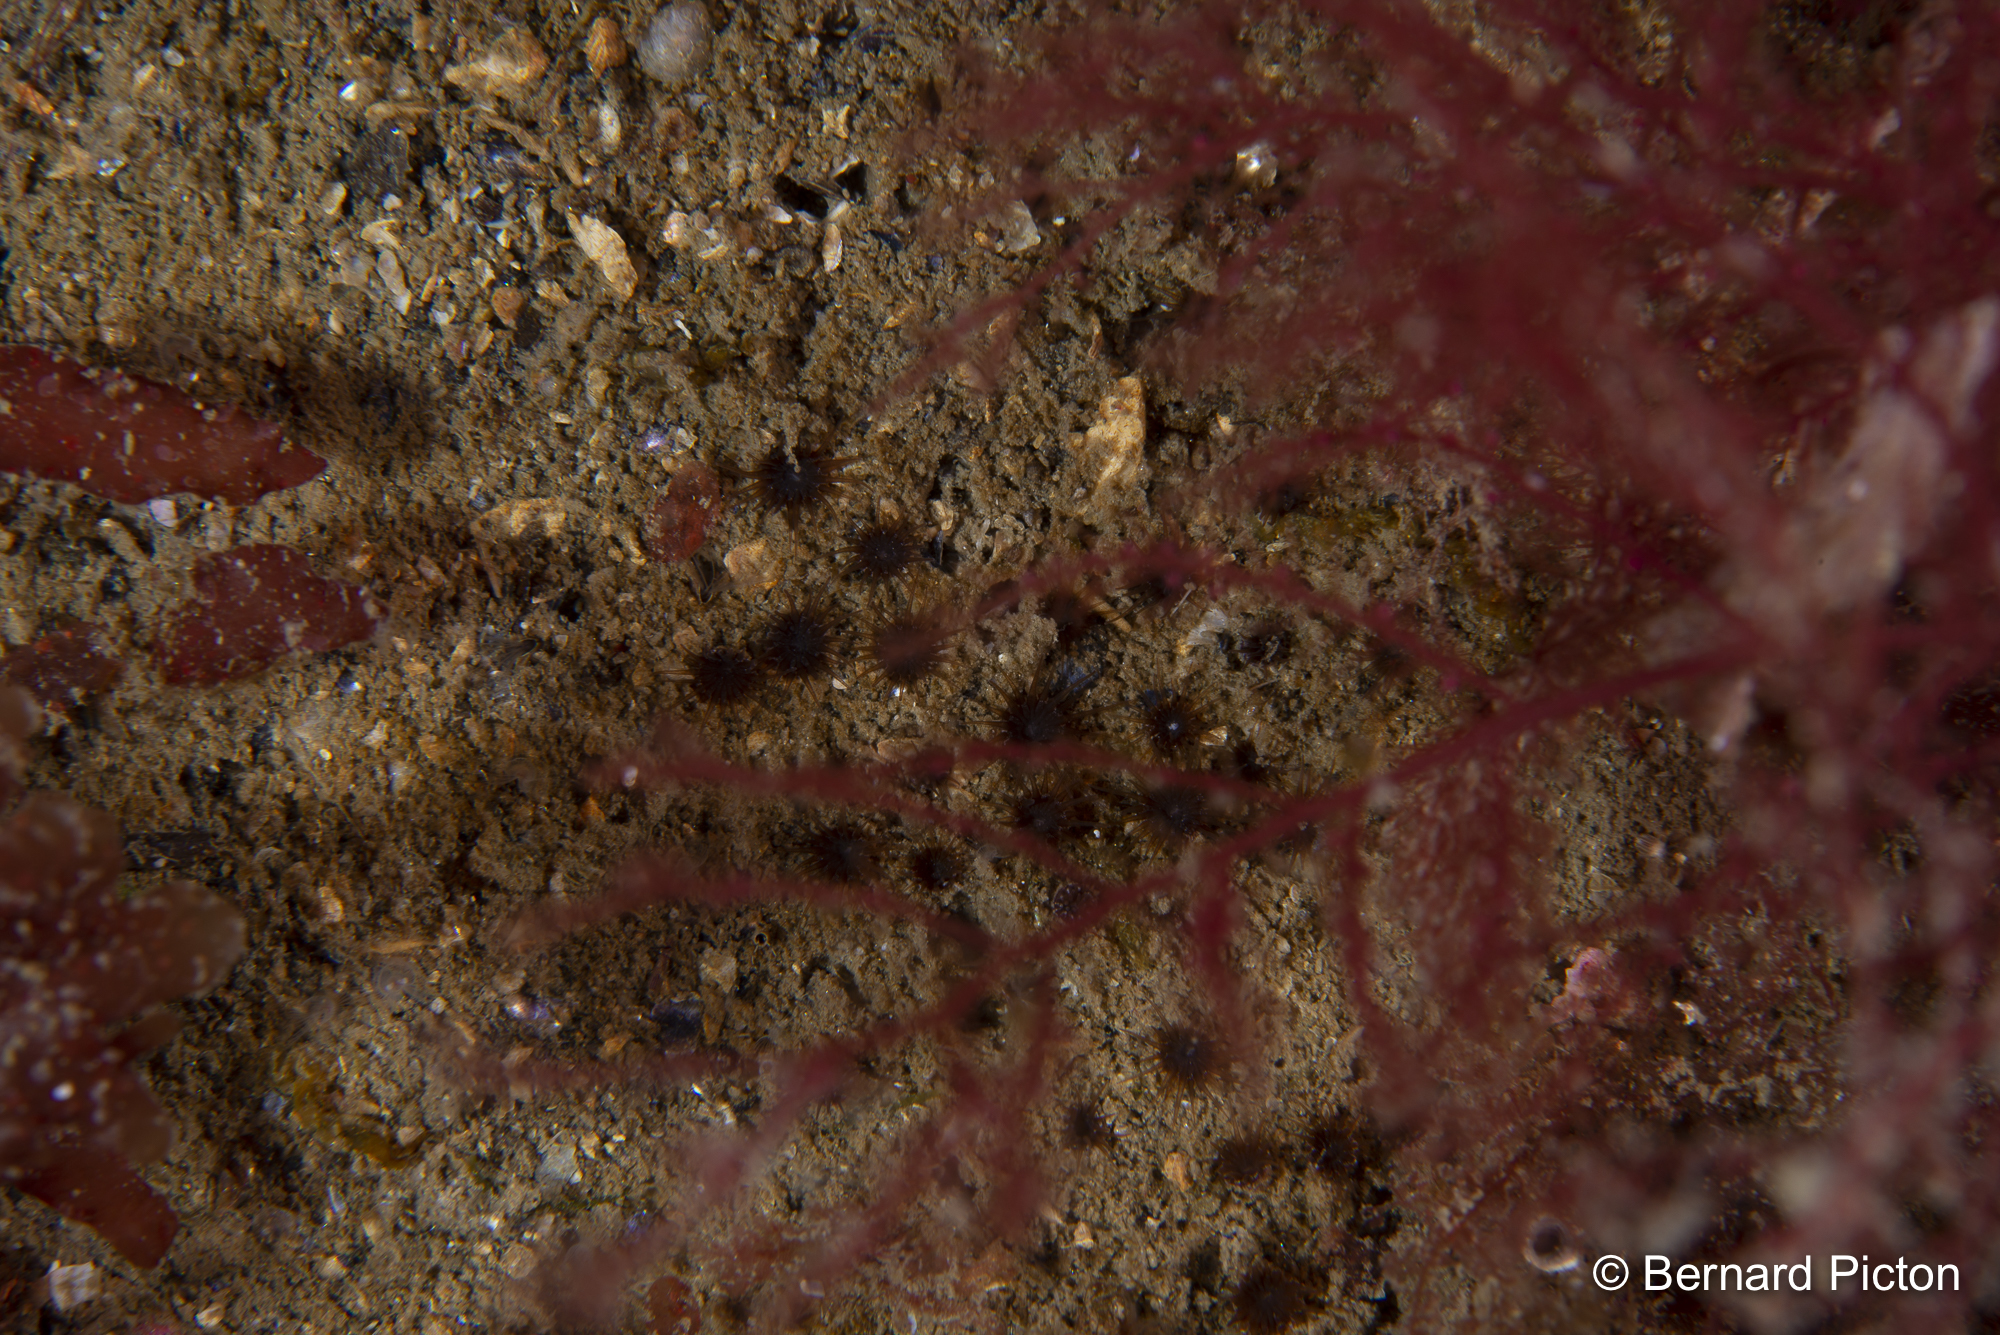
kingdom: Animalia
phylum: Cnidaria
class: Anthozoa
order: Zoantharia
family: Parazoanthidae
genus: Isozoanthus
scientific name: Isozoanthus sulcatus
